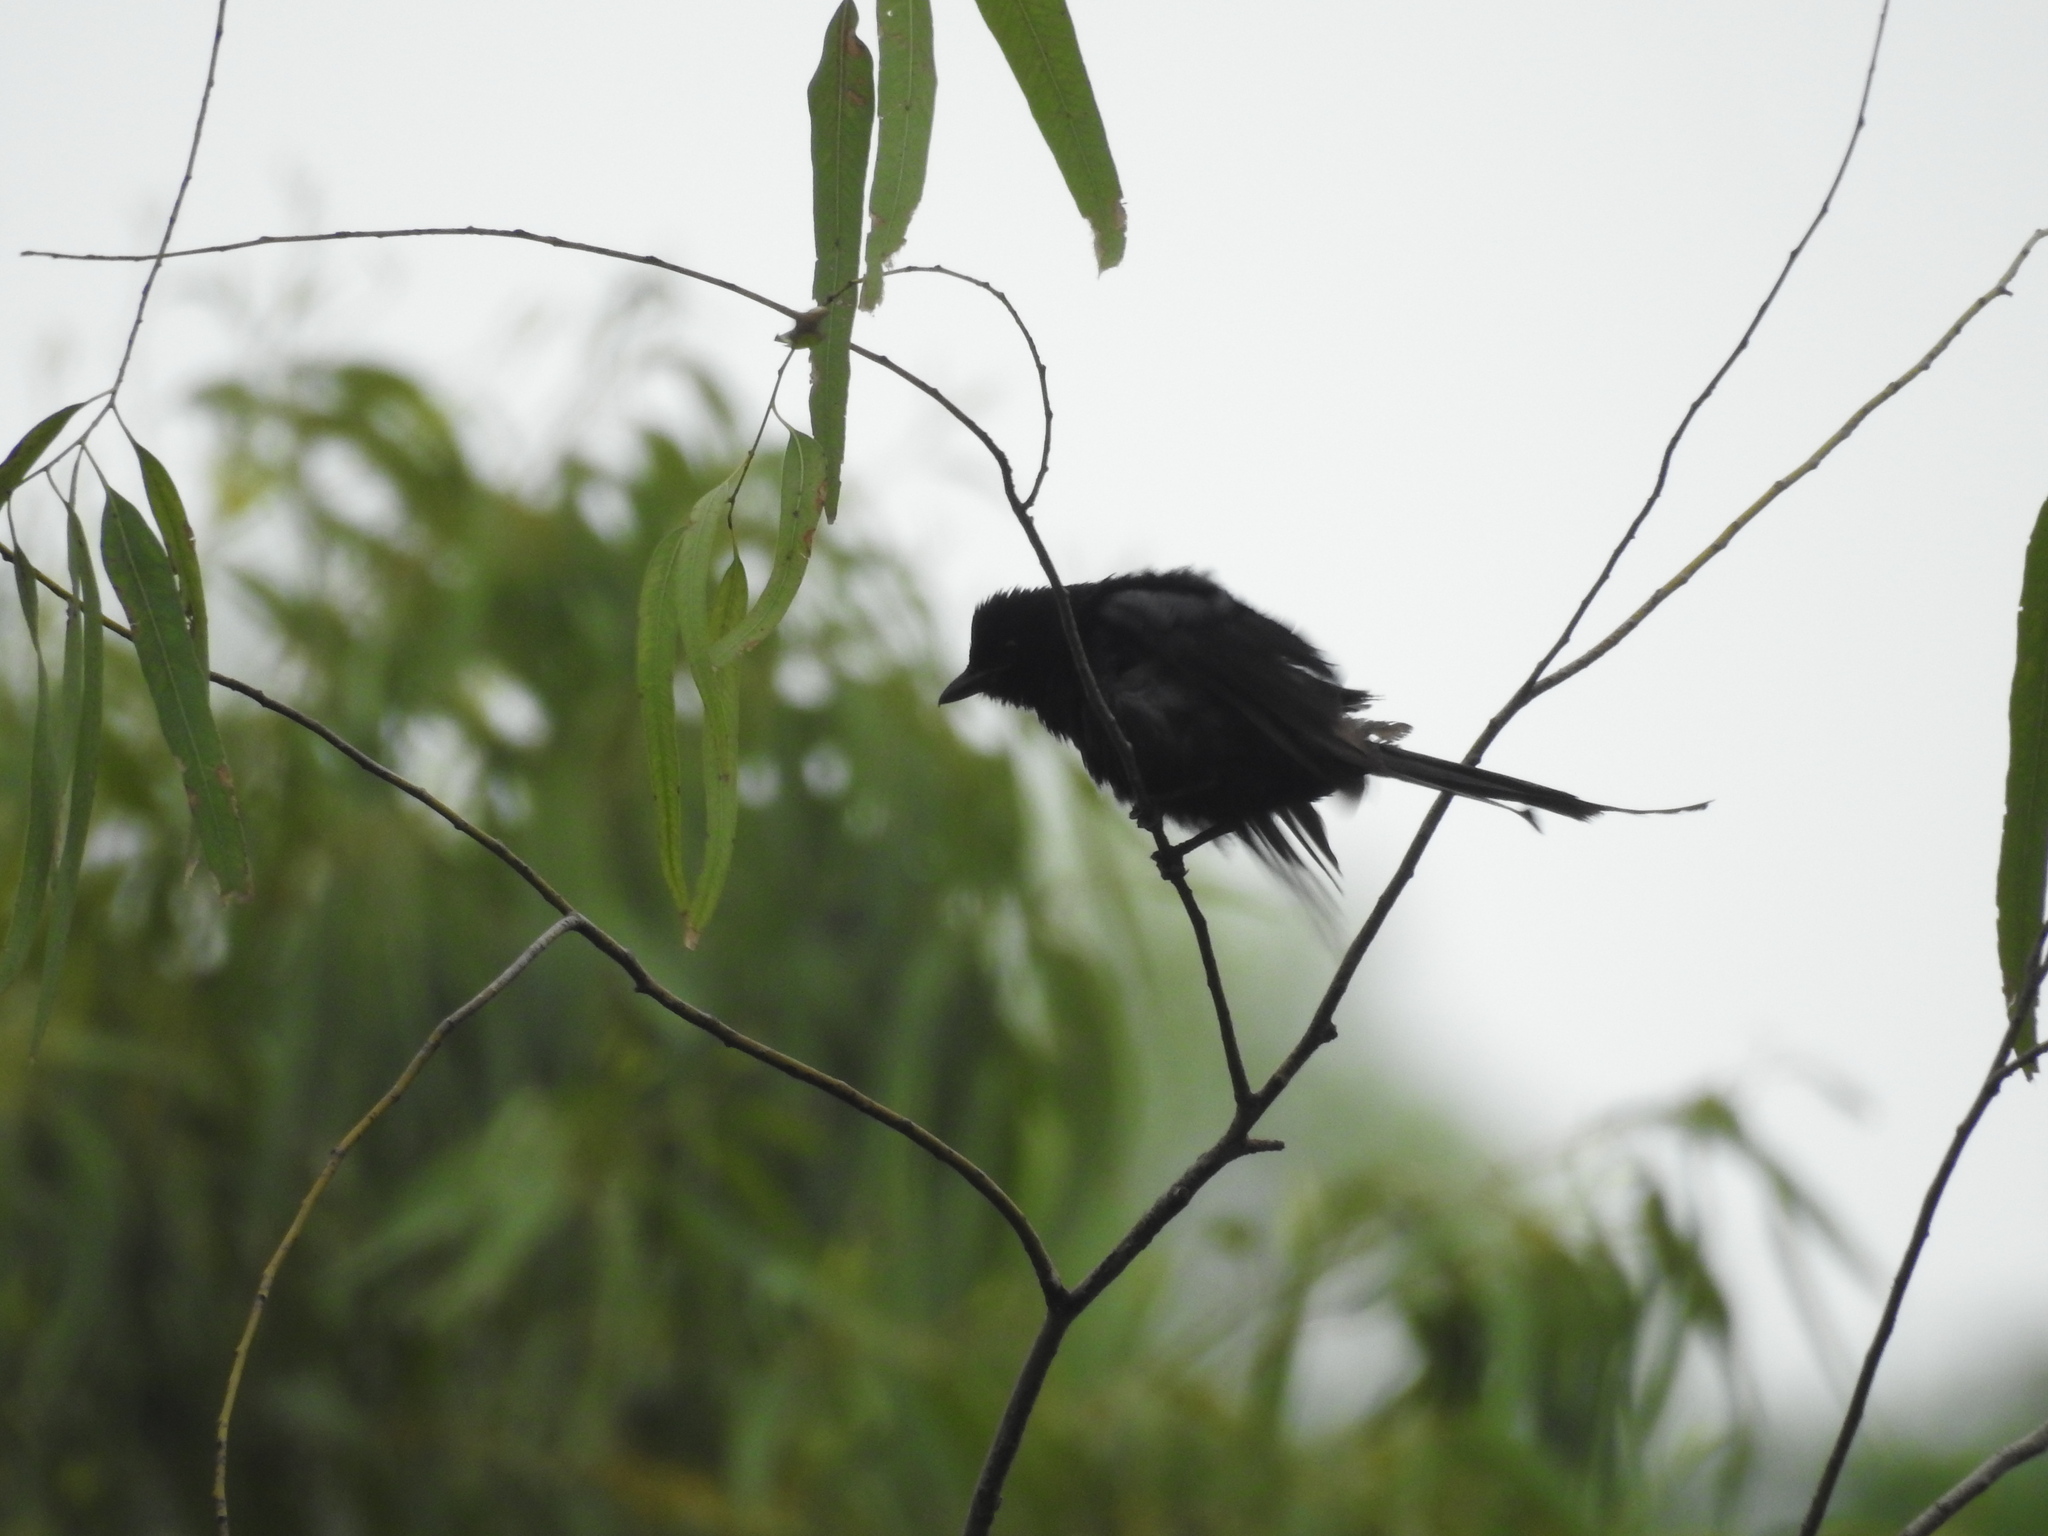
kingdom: Animalia
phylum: Chordata
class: Aves
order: Passeriformes
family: Dicruridae
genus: Dicrurus
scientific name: Dicrurus macrocercus
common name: Black drongo
